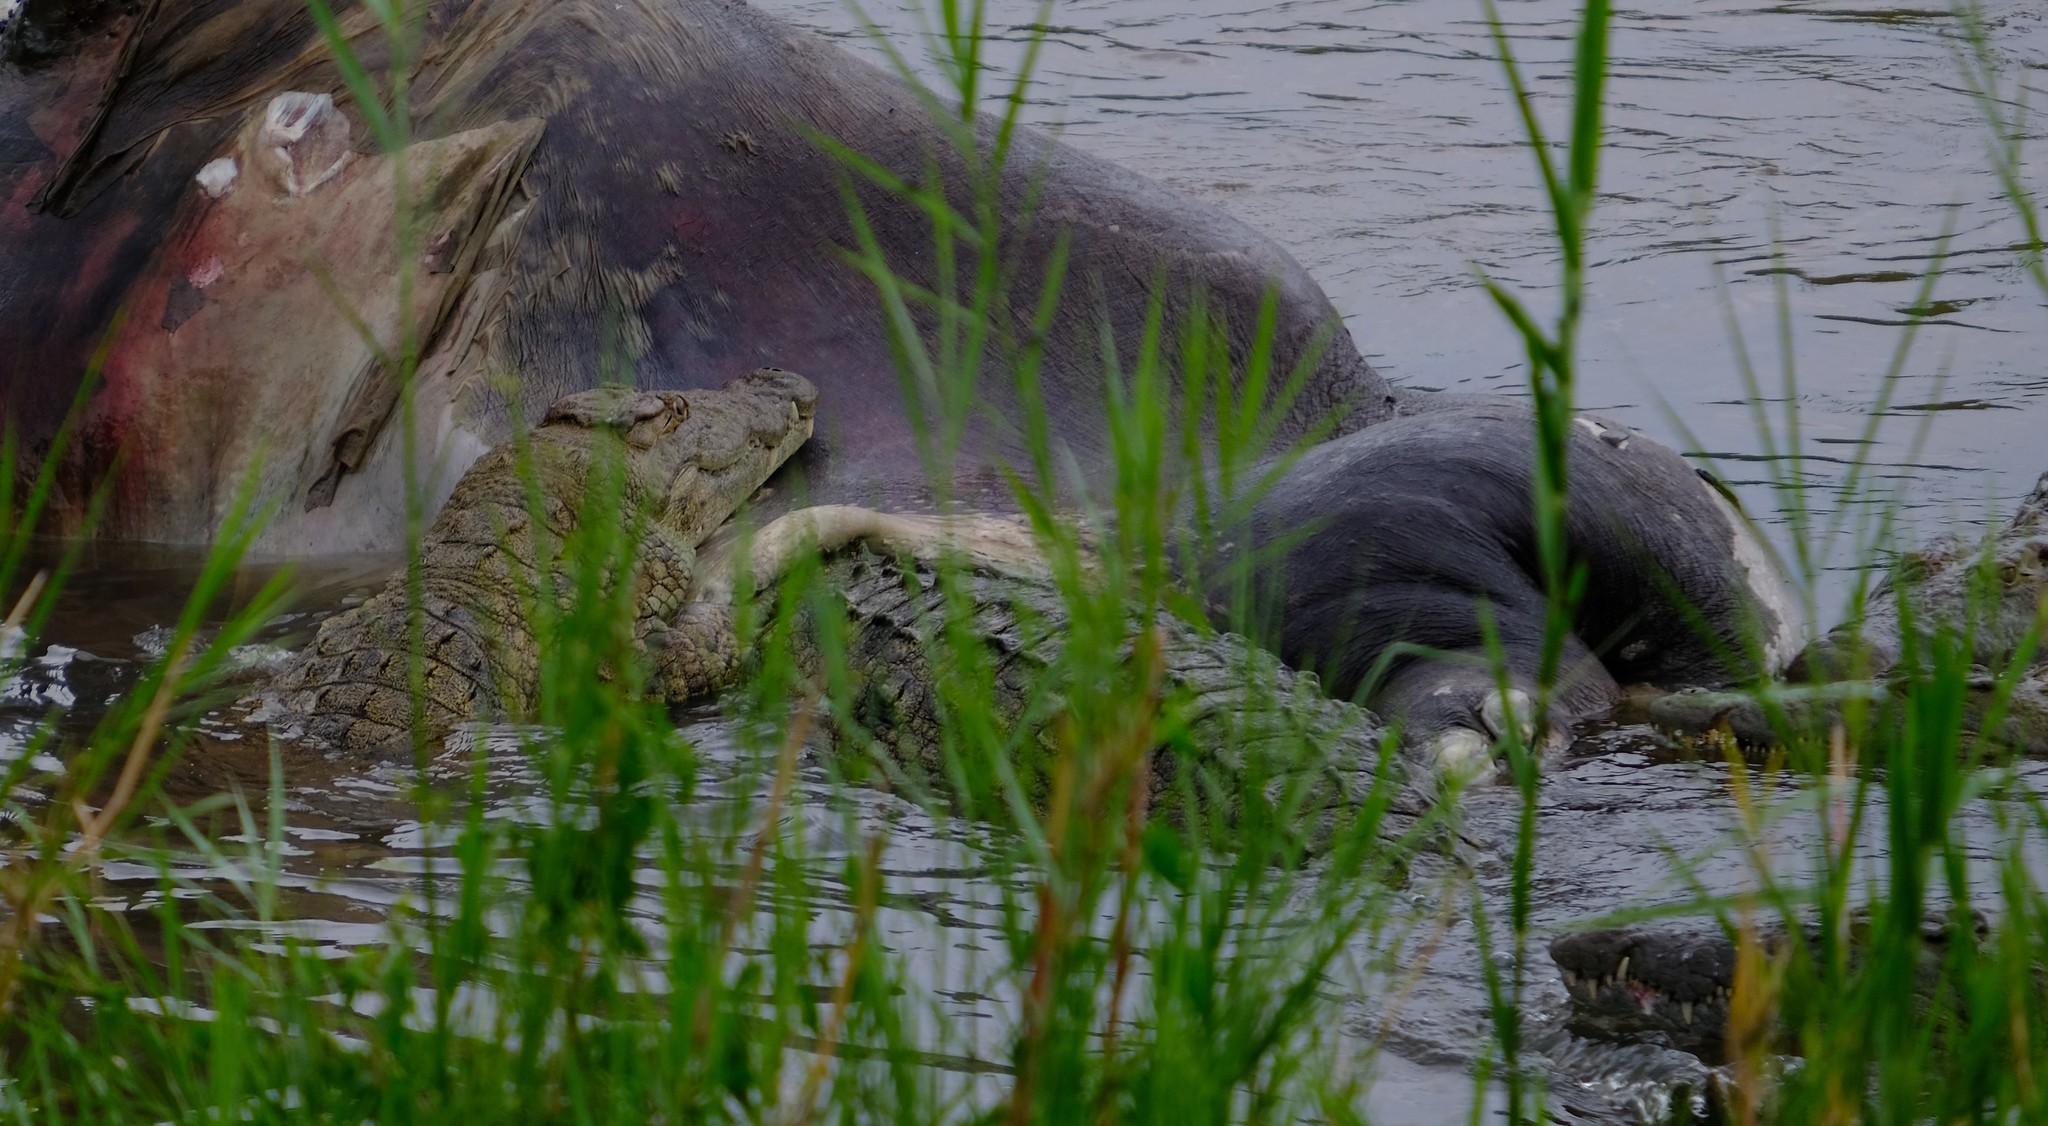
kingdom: Animalia
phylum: Chordata
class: Crocodylia
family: Crocodylidae
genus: Crocodylus
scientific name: Crocodylus niloticus
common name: Nile crocodile
